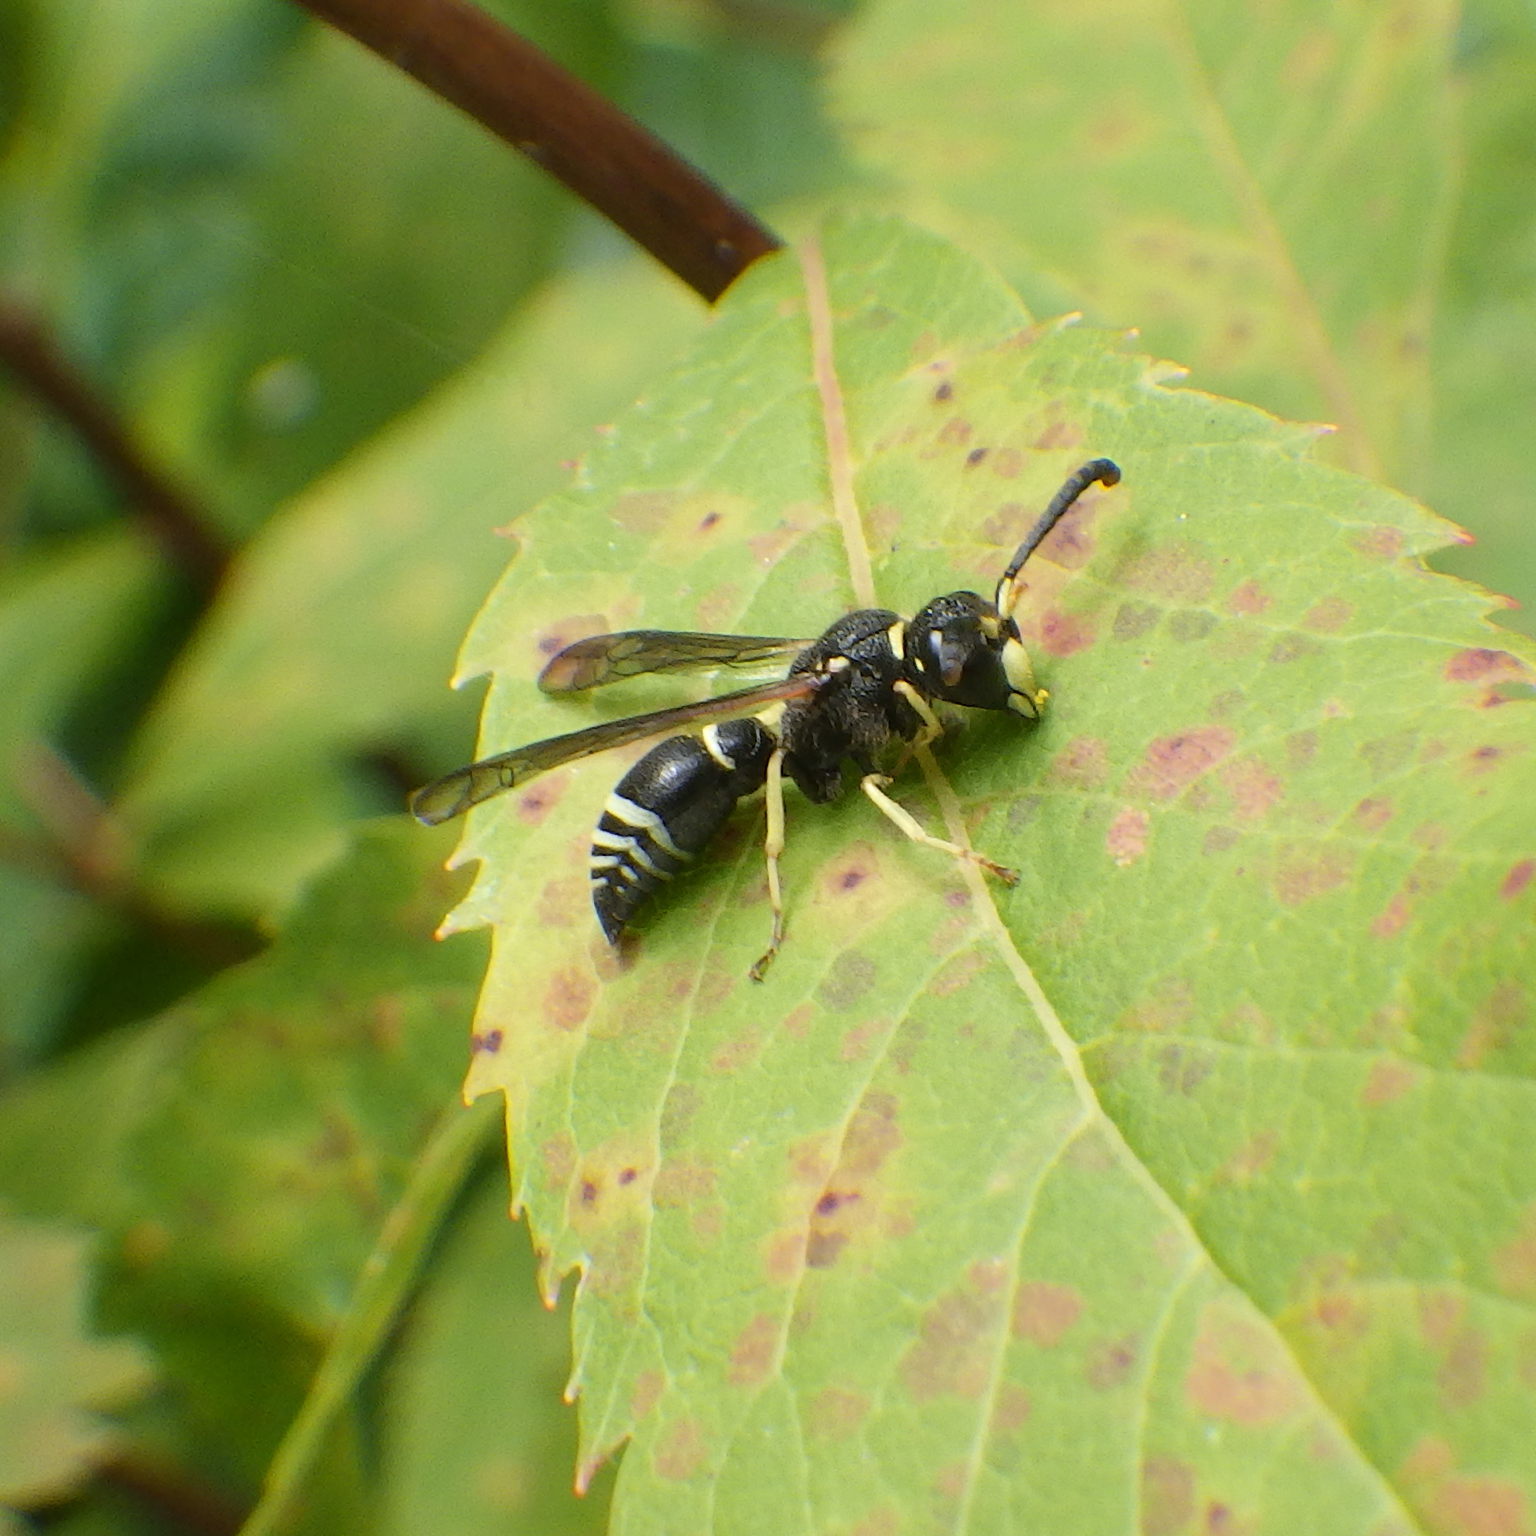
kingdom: Animalia
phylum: Arthropoda
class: Insecta
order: Hymenoptera
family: Vespidae
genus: Ancistrocerus
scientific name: Ancistrocerus
